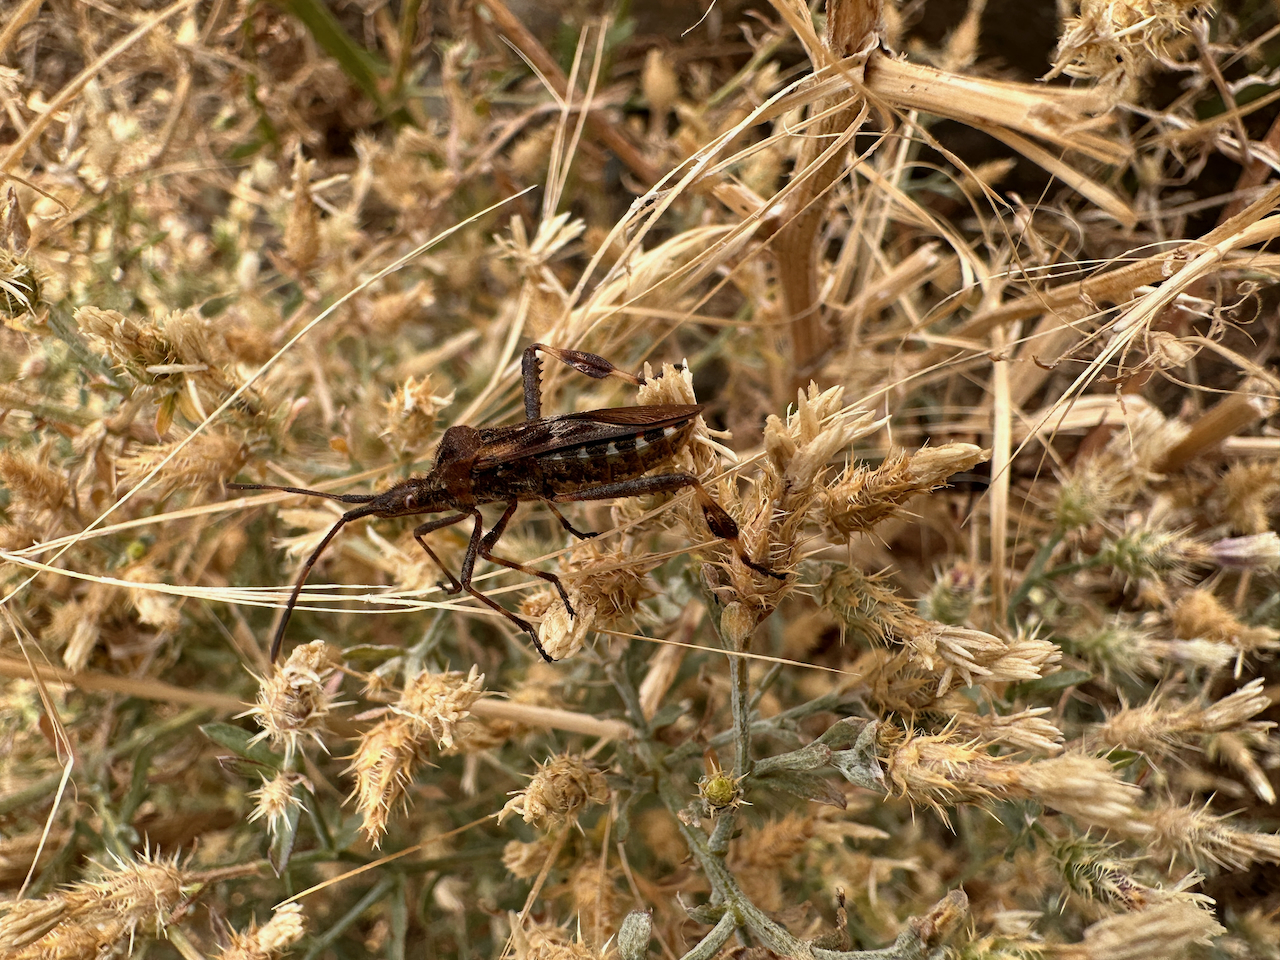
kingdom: Animalia
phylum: Arthropoda
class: Insecta
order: Hemiptera
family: Coreidae
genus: Leptoglossus
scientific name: Leptoglossus occidentalis
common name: Western conifer-seed bug
